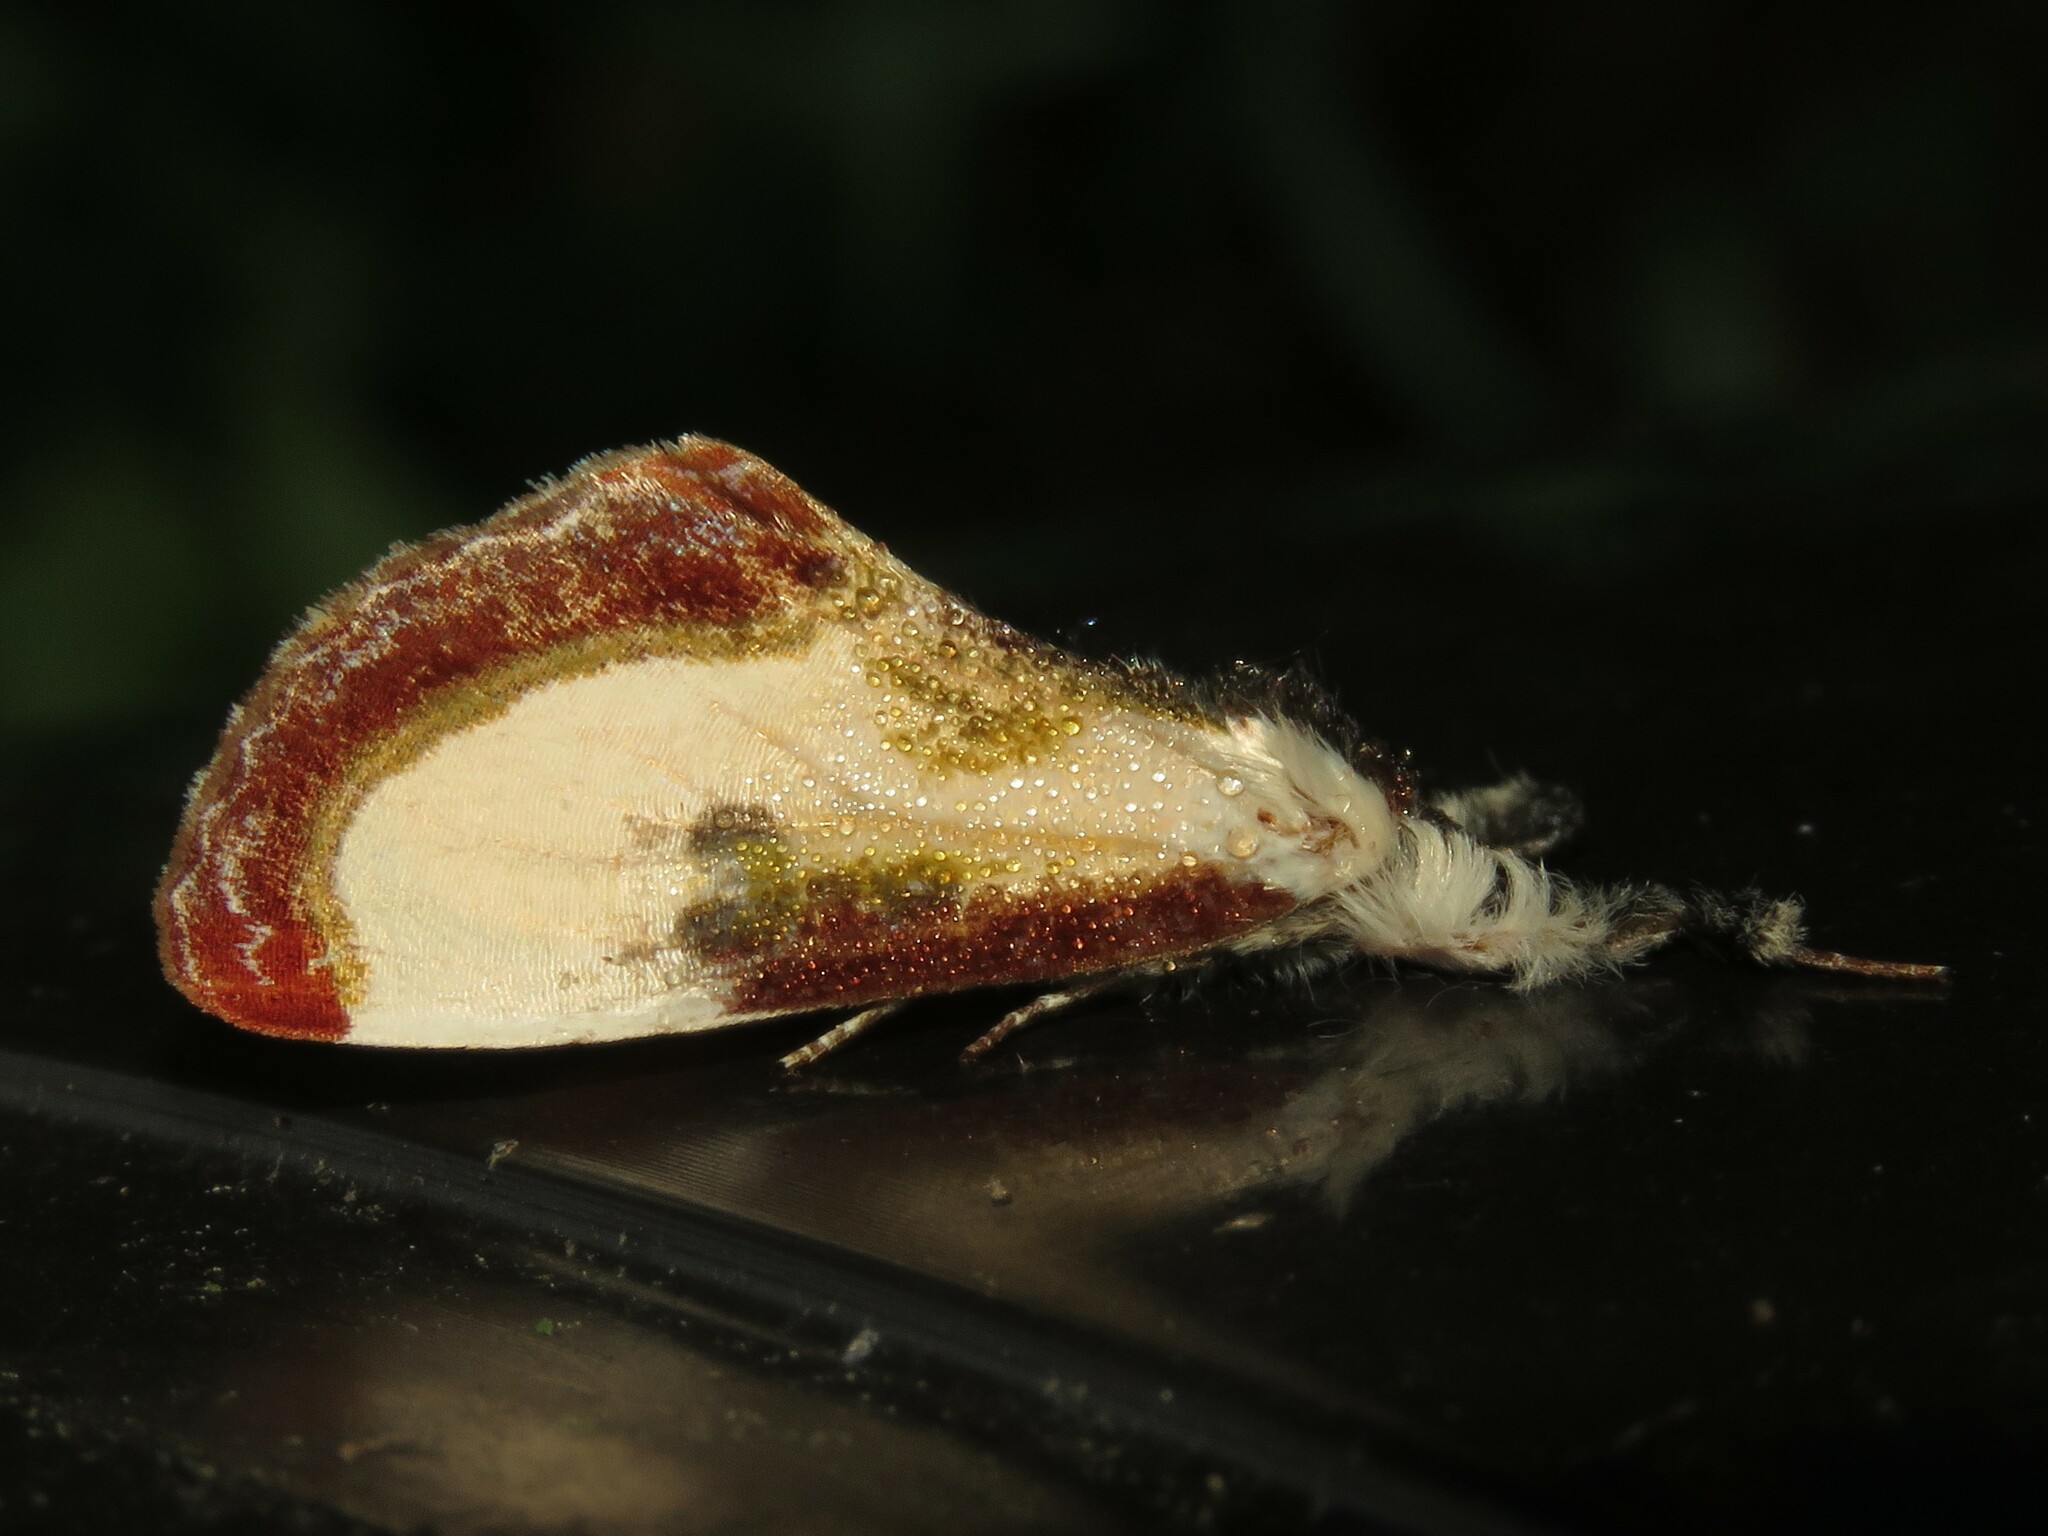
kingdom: Animalia
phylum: Arthropoda
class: Insecta
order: Lepidoptera
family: Noctuidae
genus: Eudryas
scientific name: Eudryas grata
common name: Beautiful wood-nymph
